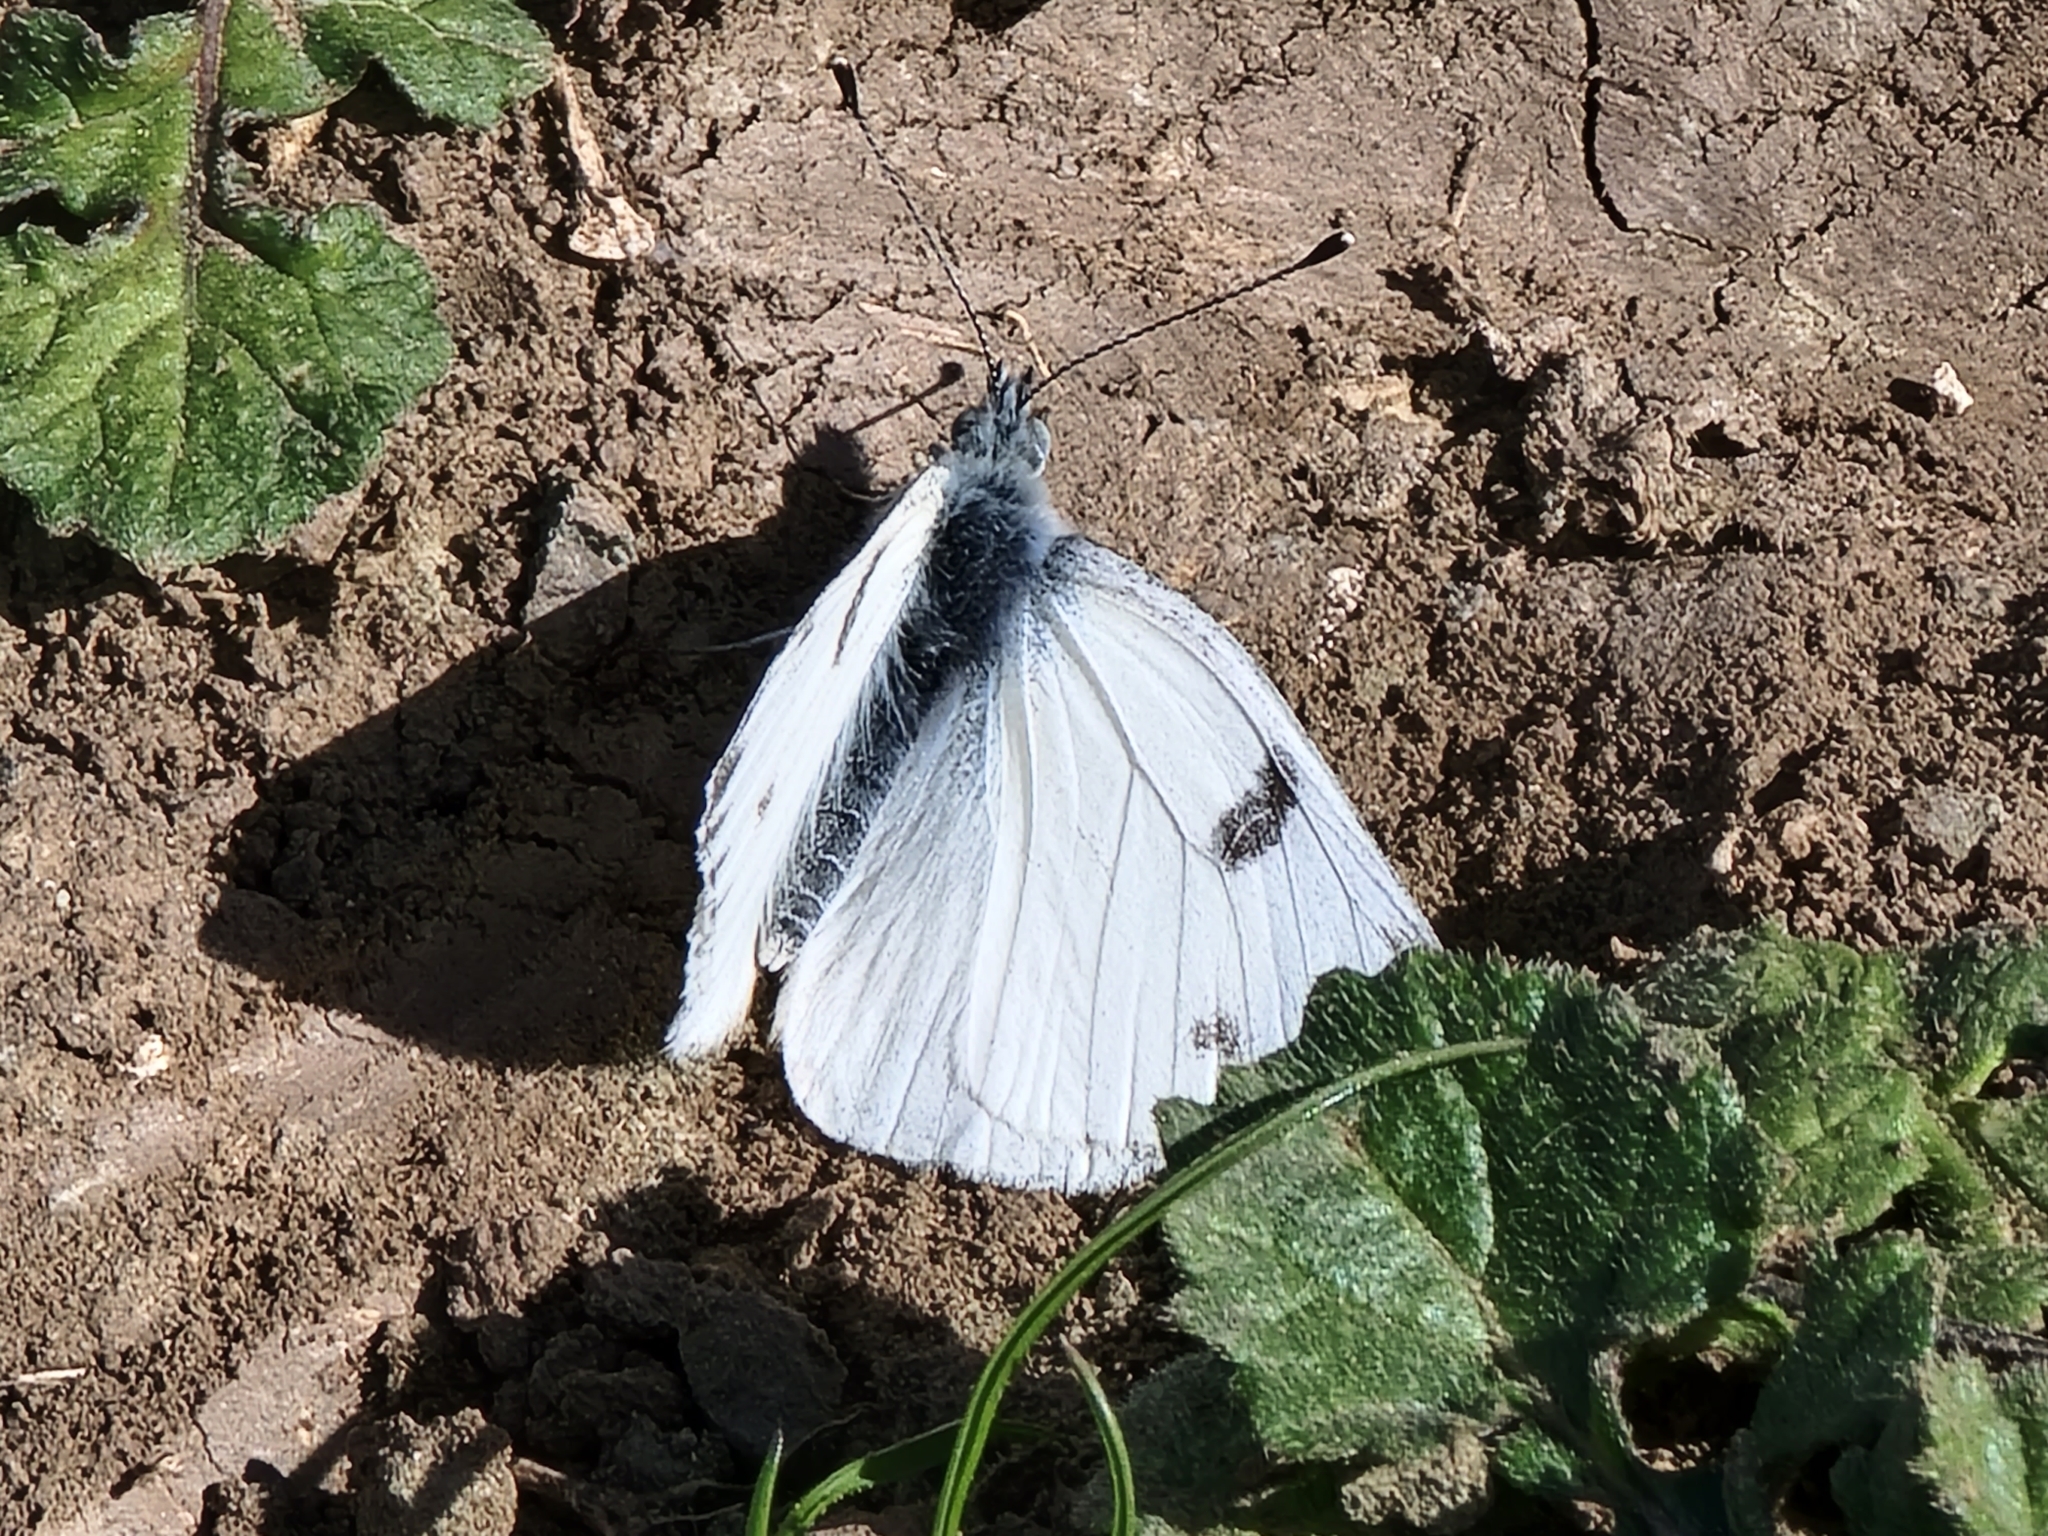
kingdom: Animalia
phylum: Arthropoda
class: Insecta
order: Lepidoptera
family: Pieridae
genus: Pontia
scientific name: Pontia protodice
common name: Checkered white
